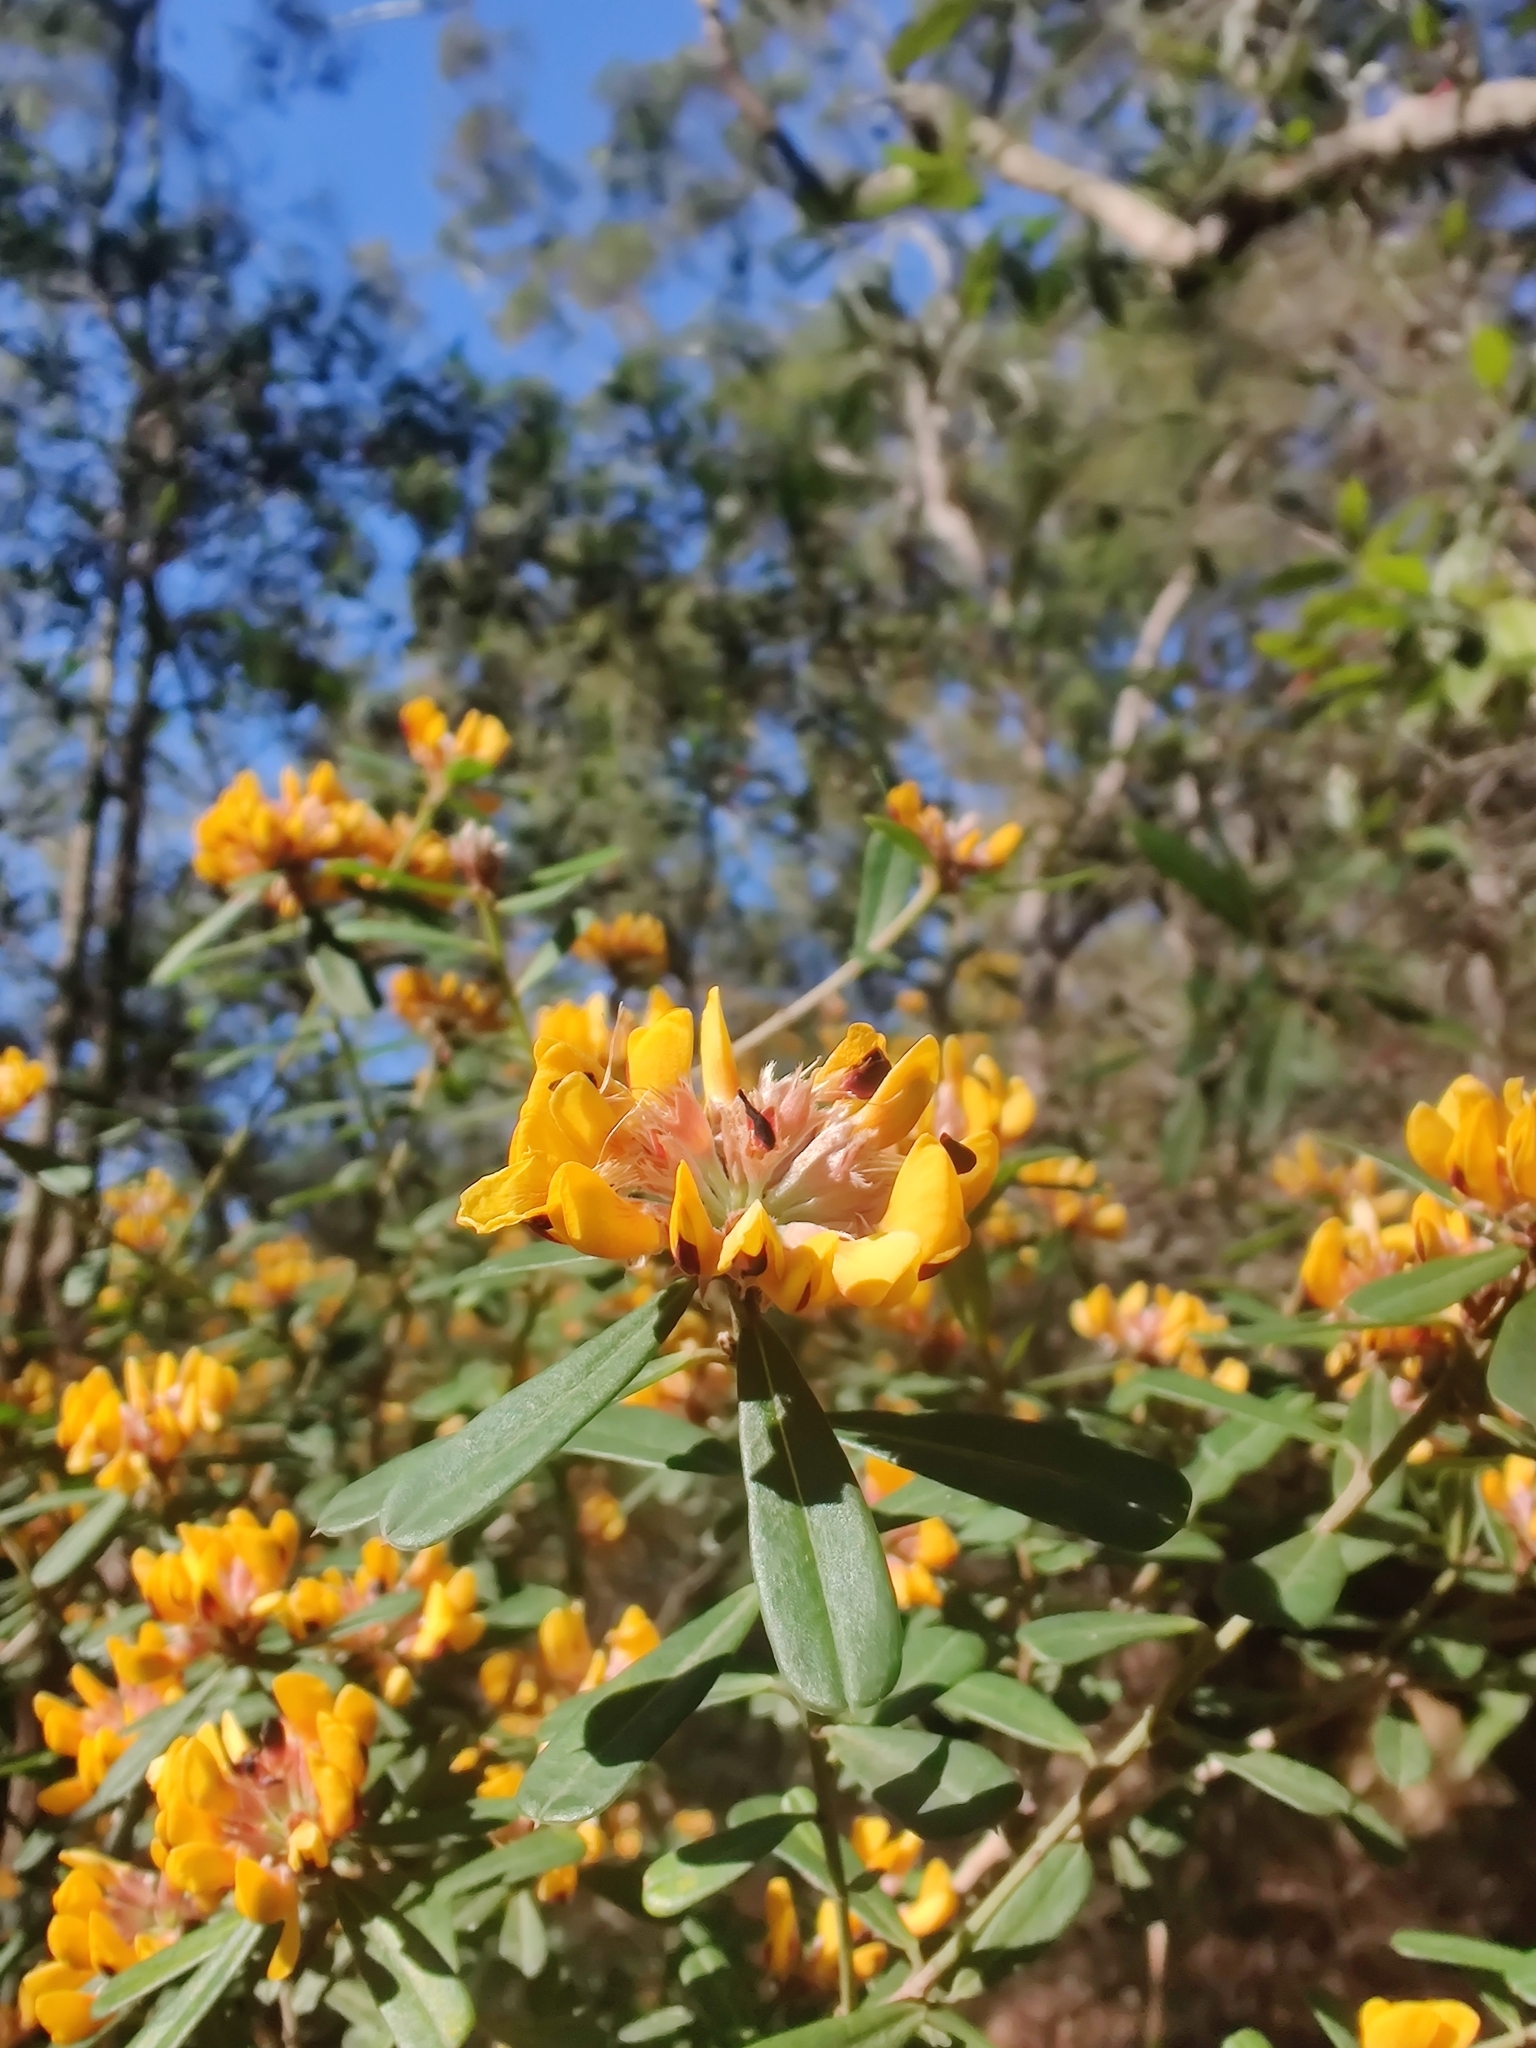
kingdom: Plantae
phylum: Tracheophyta
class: Magnoliopsida
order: Fabales
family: Fabaceae
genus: Pultenaea
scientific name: Pultenaea daphnoides
